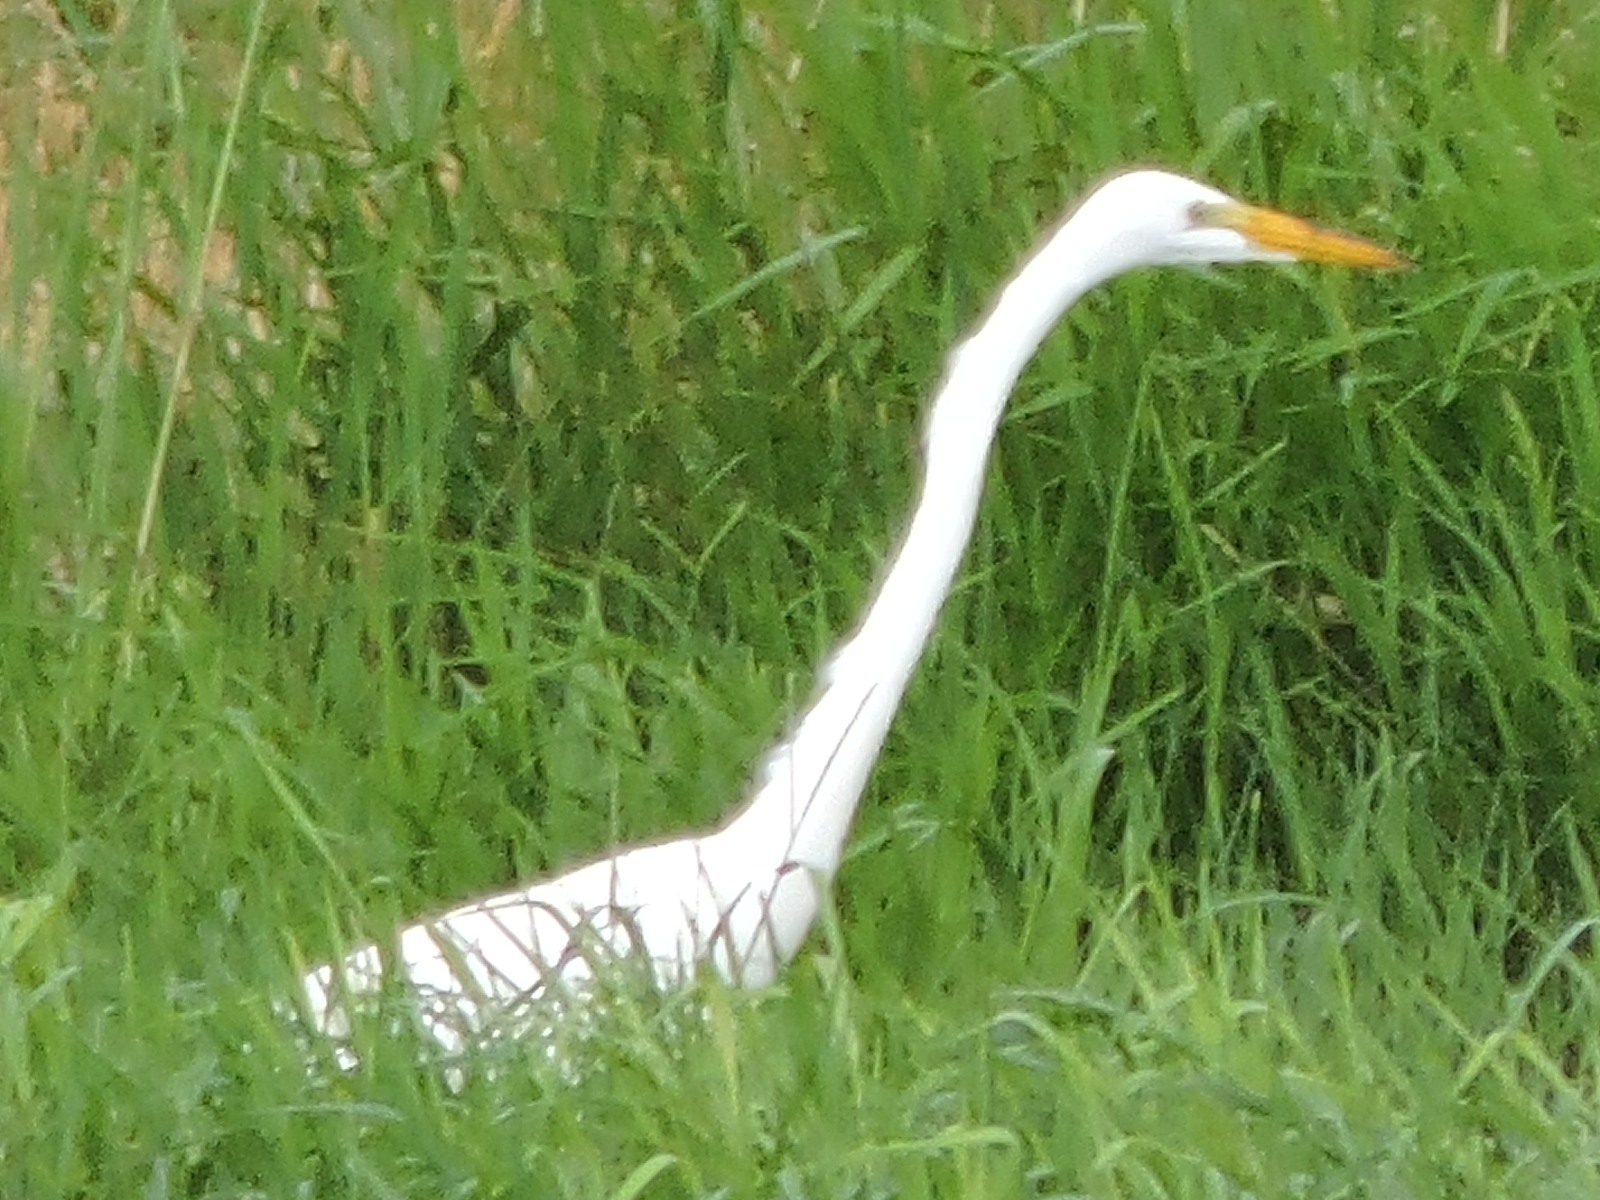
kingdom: Animalia
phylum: Chordata
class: Aves
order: Pelecaniformes
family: Ardeidae
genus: Ardea
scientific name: Ardea alba
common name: Great egret
